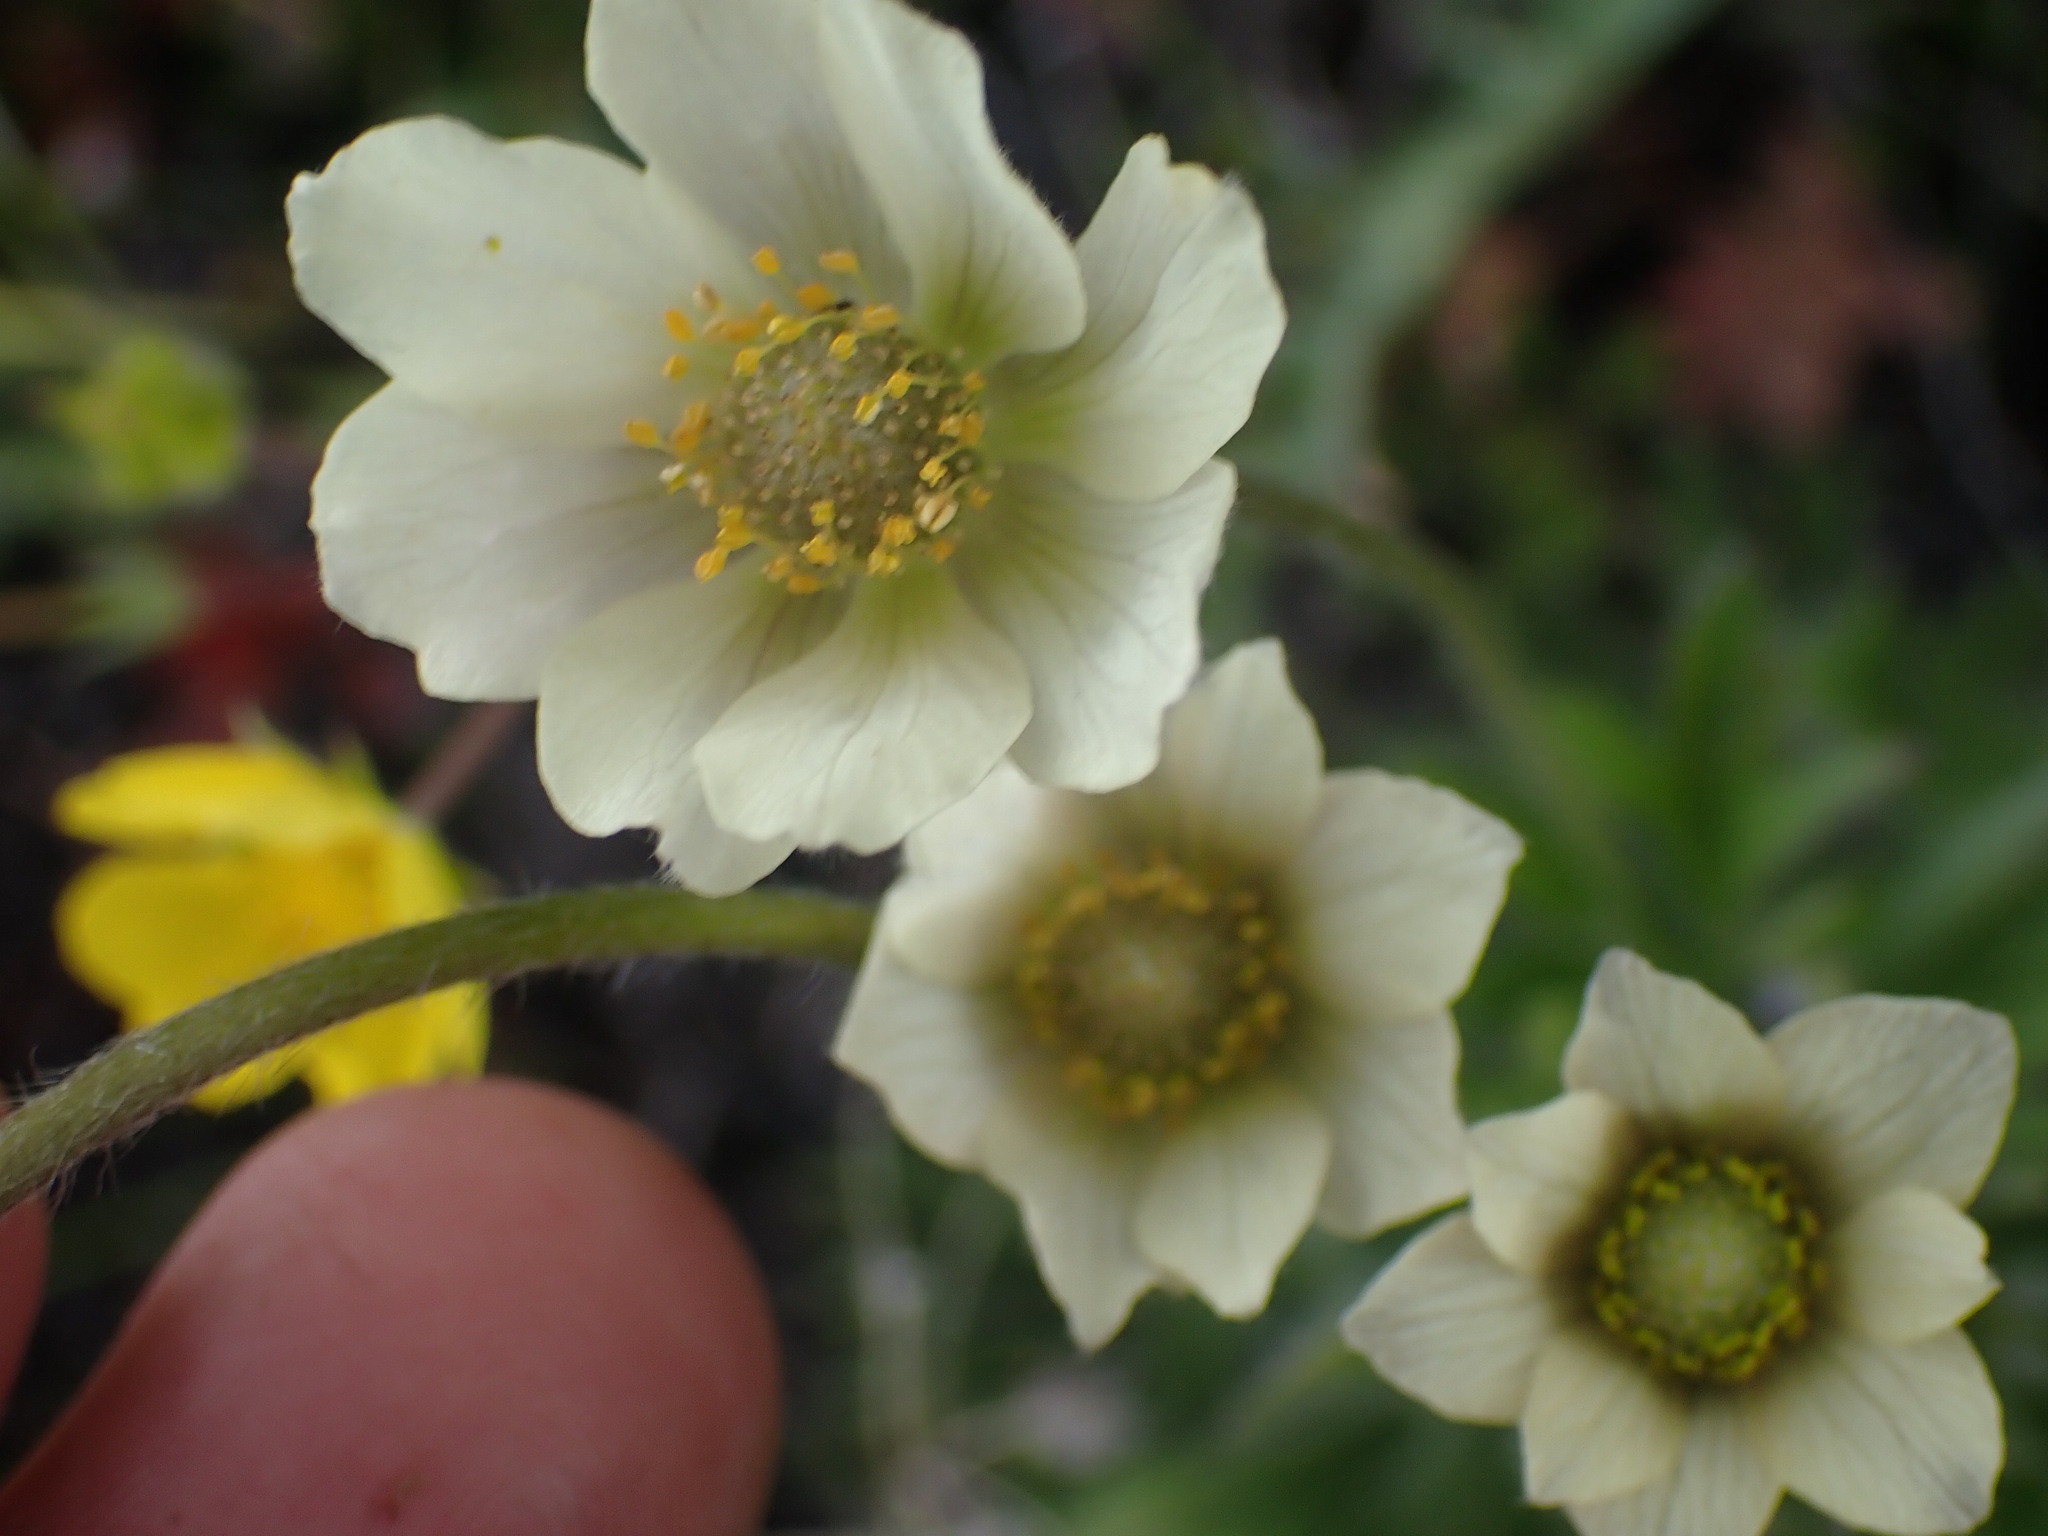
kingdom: Plantae
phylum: Tracheophyta
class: Magnoliopsida
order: Ranunculales
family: Ranunculaceae
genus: Anemone
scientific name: Anemone multifida
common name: Bird's-foot anemone
